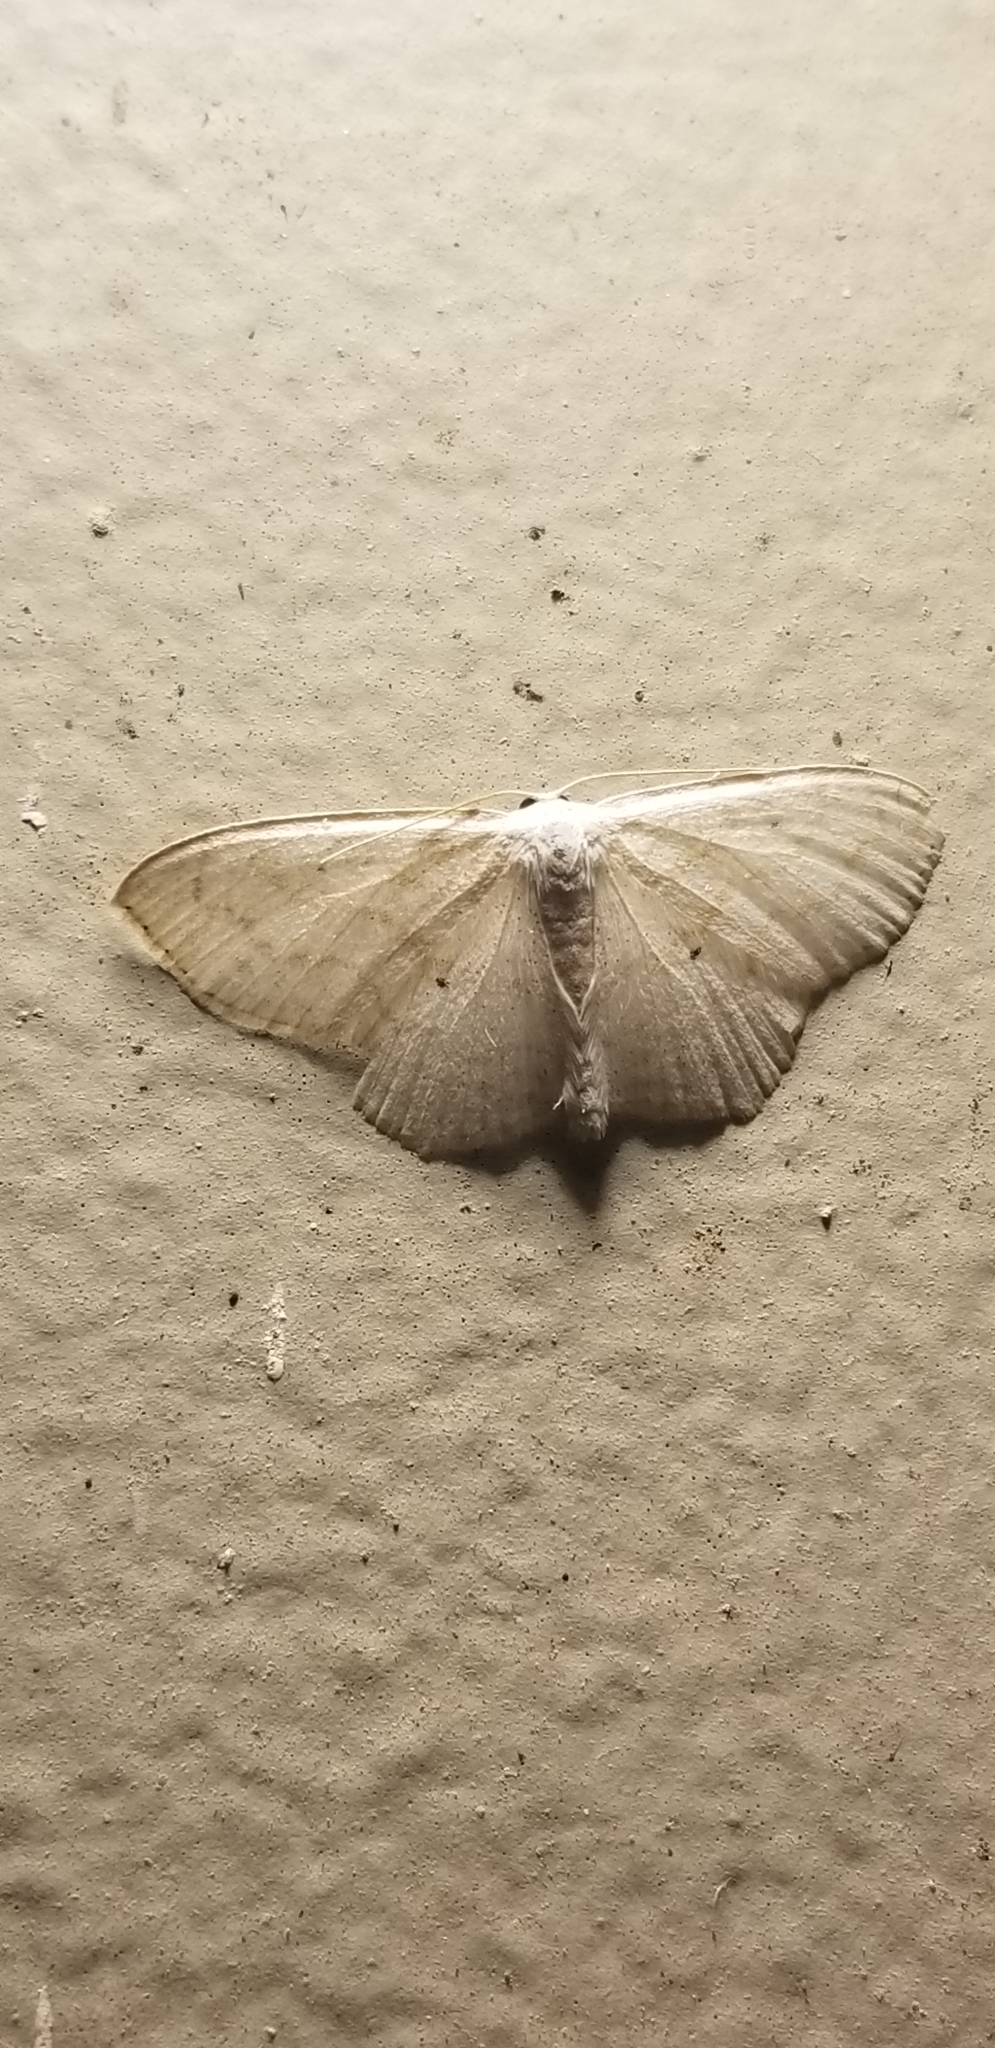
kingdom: Animalia
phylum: Arthropoda
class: Insecta
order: Lepidoptera
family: Geometridae
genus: Scopula
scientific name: Scopula limboundata
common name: Large lace border
